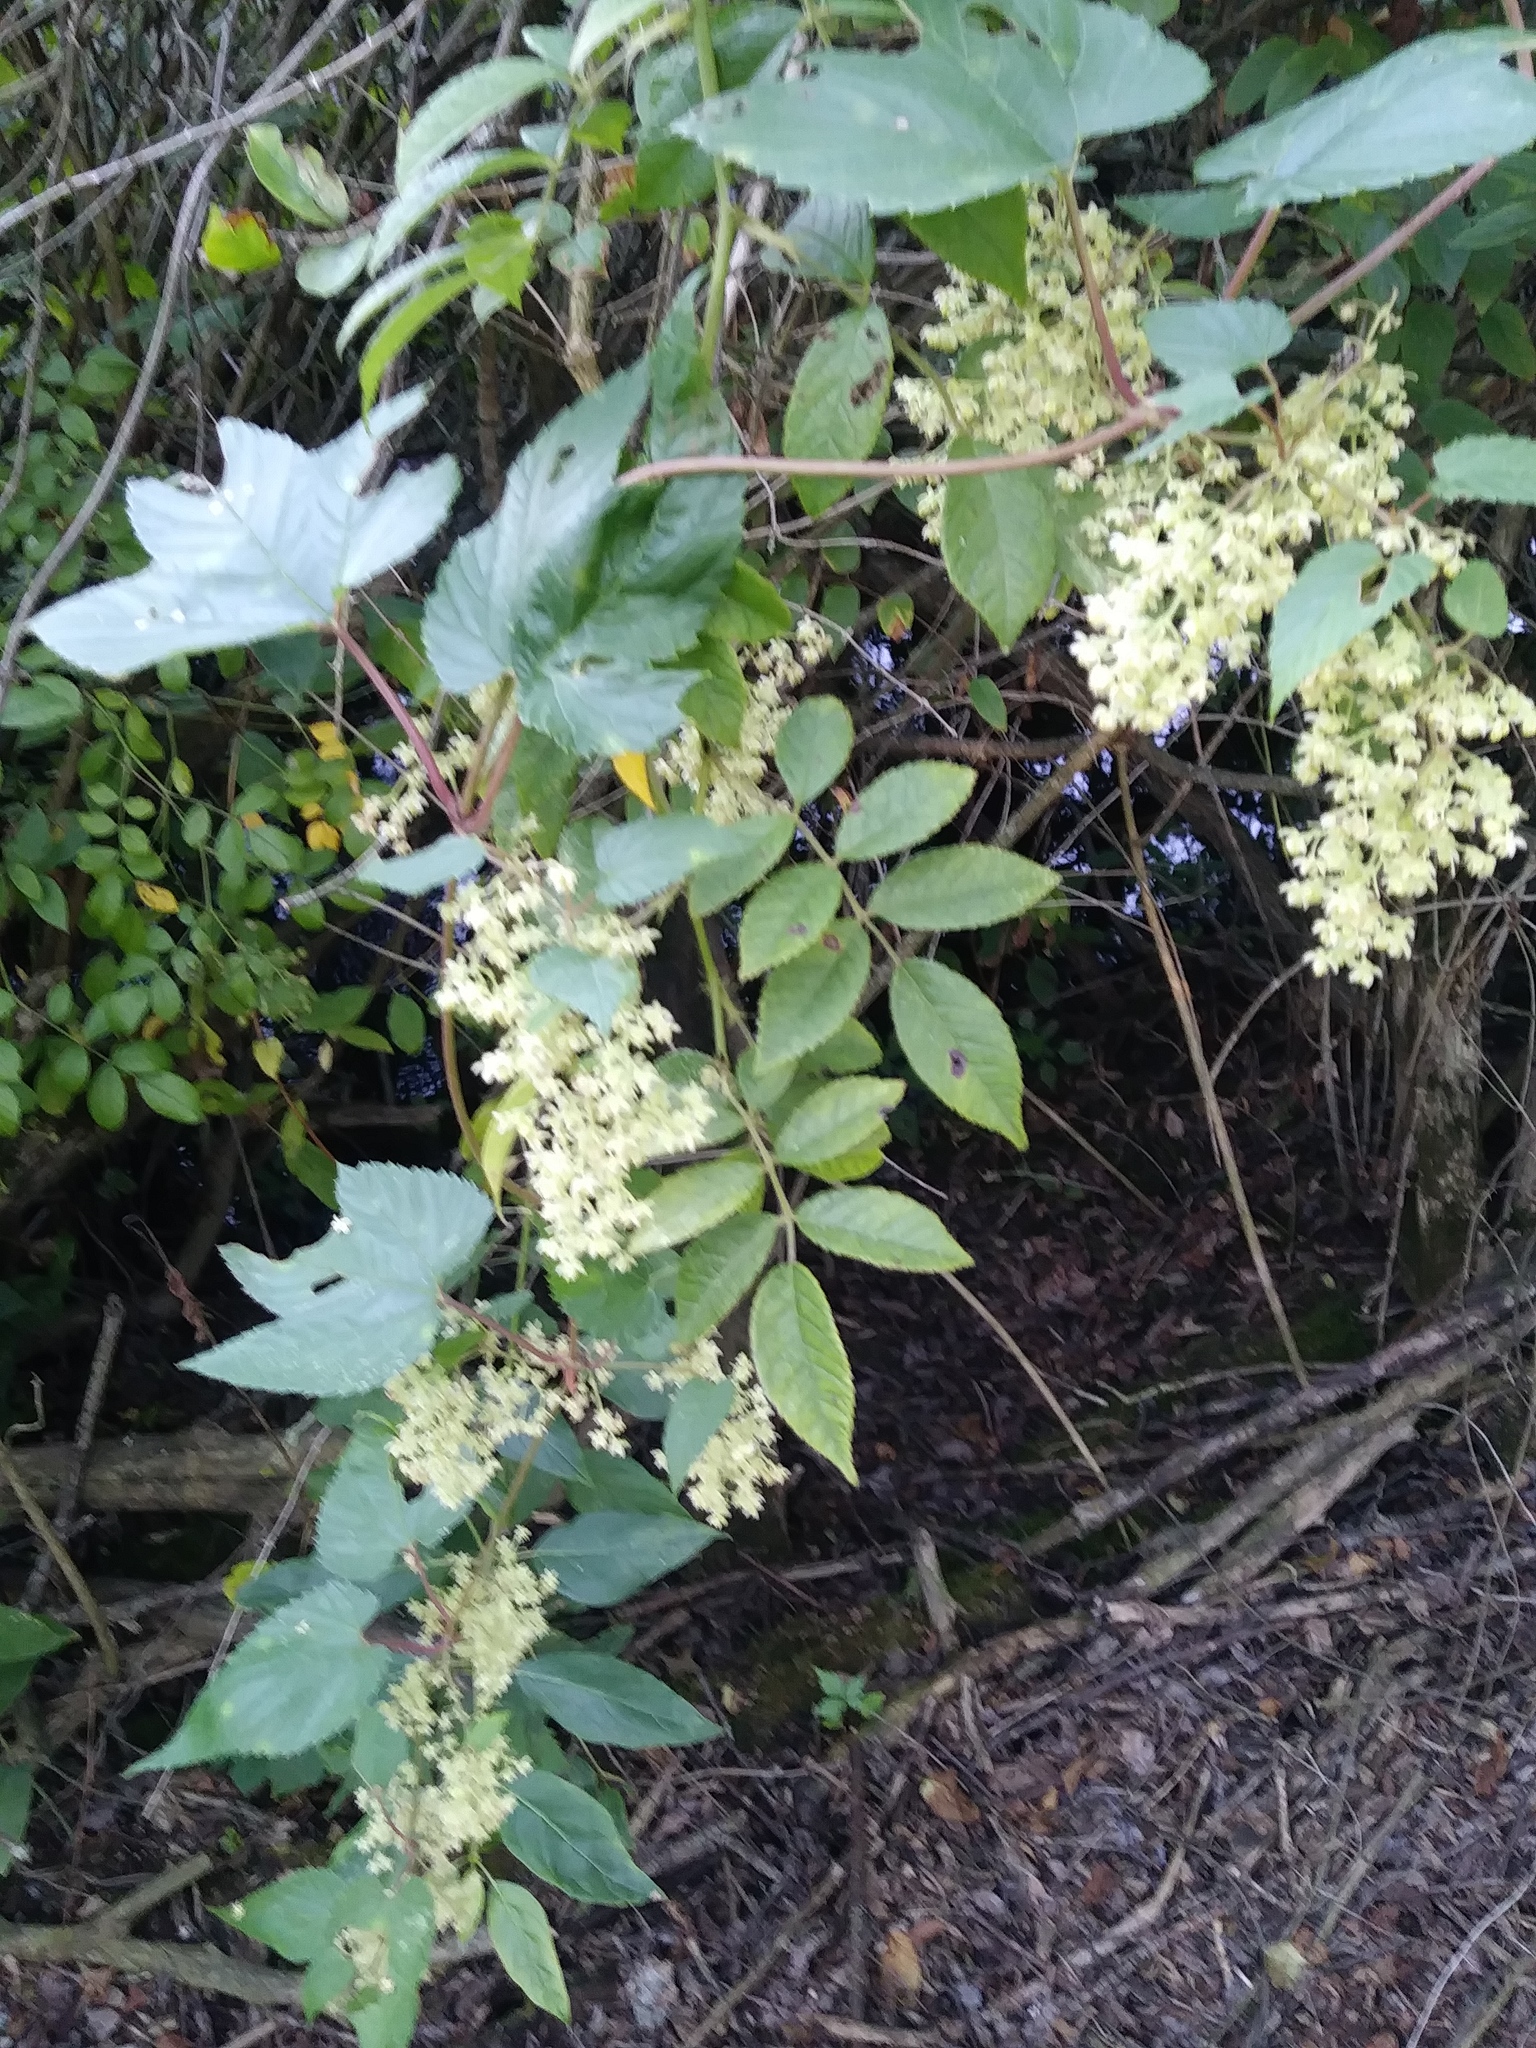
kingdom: Plantae
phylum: Tracheophyta
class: Magnoliopsida
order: Cucurbitales
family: Cucurbitaceae
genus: Echinocystis
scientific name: Echinocystis lobata
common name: Wild cucumber
